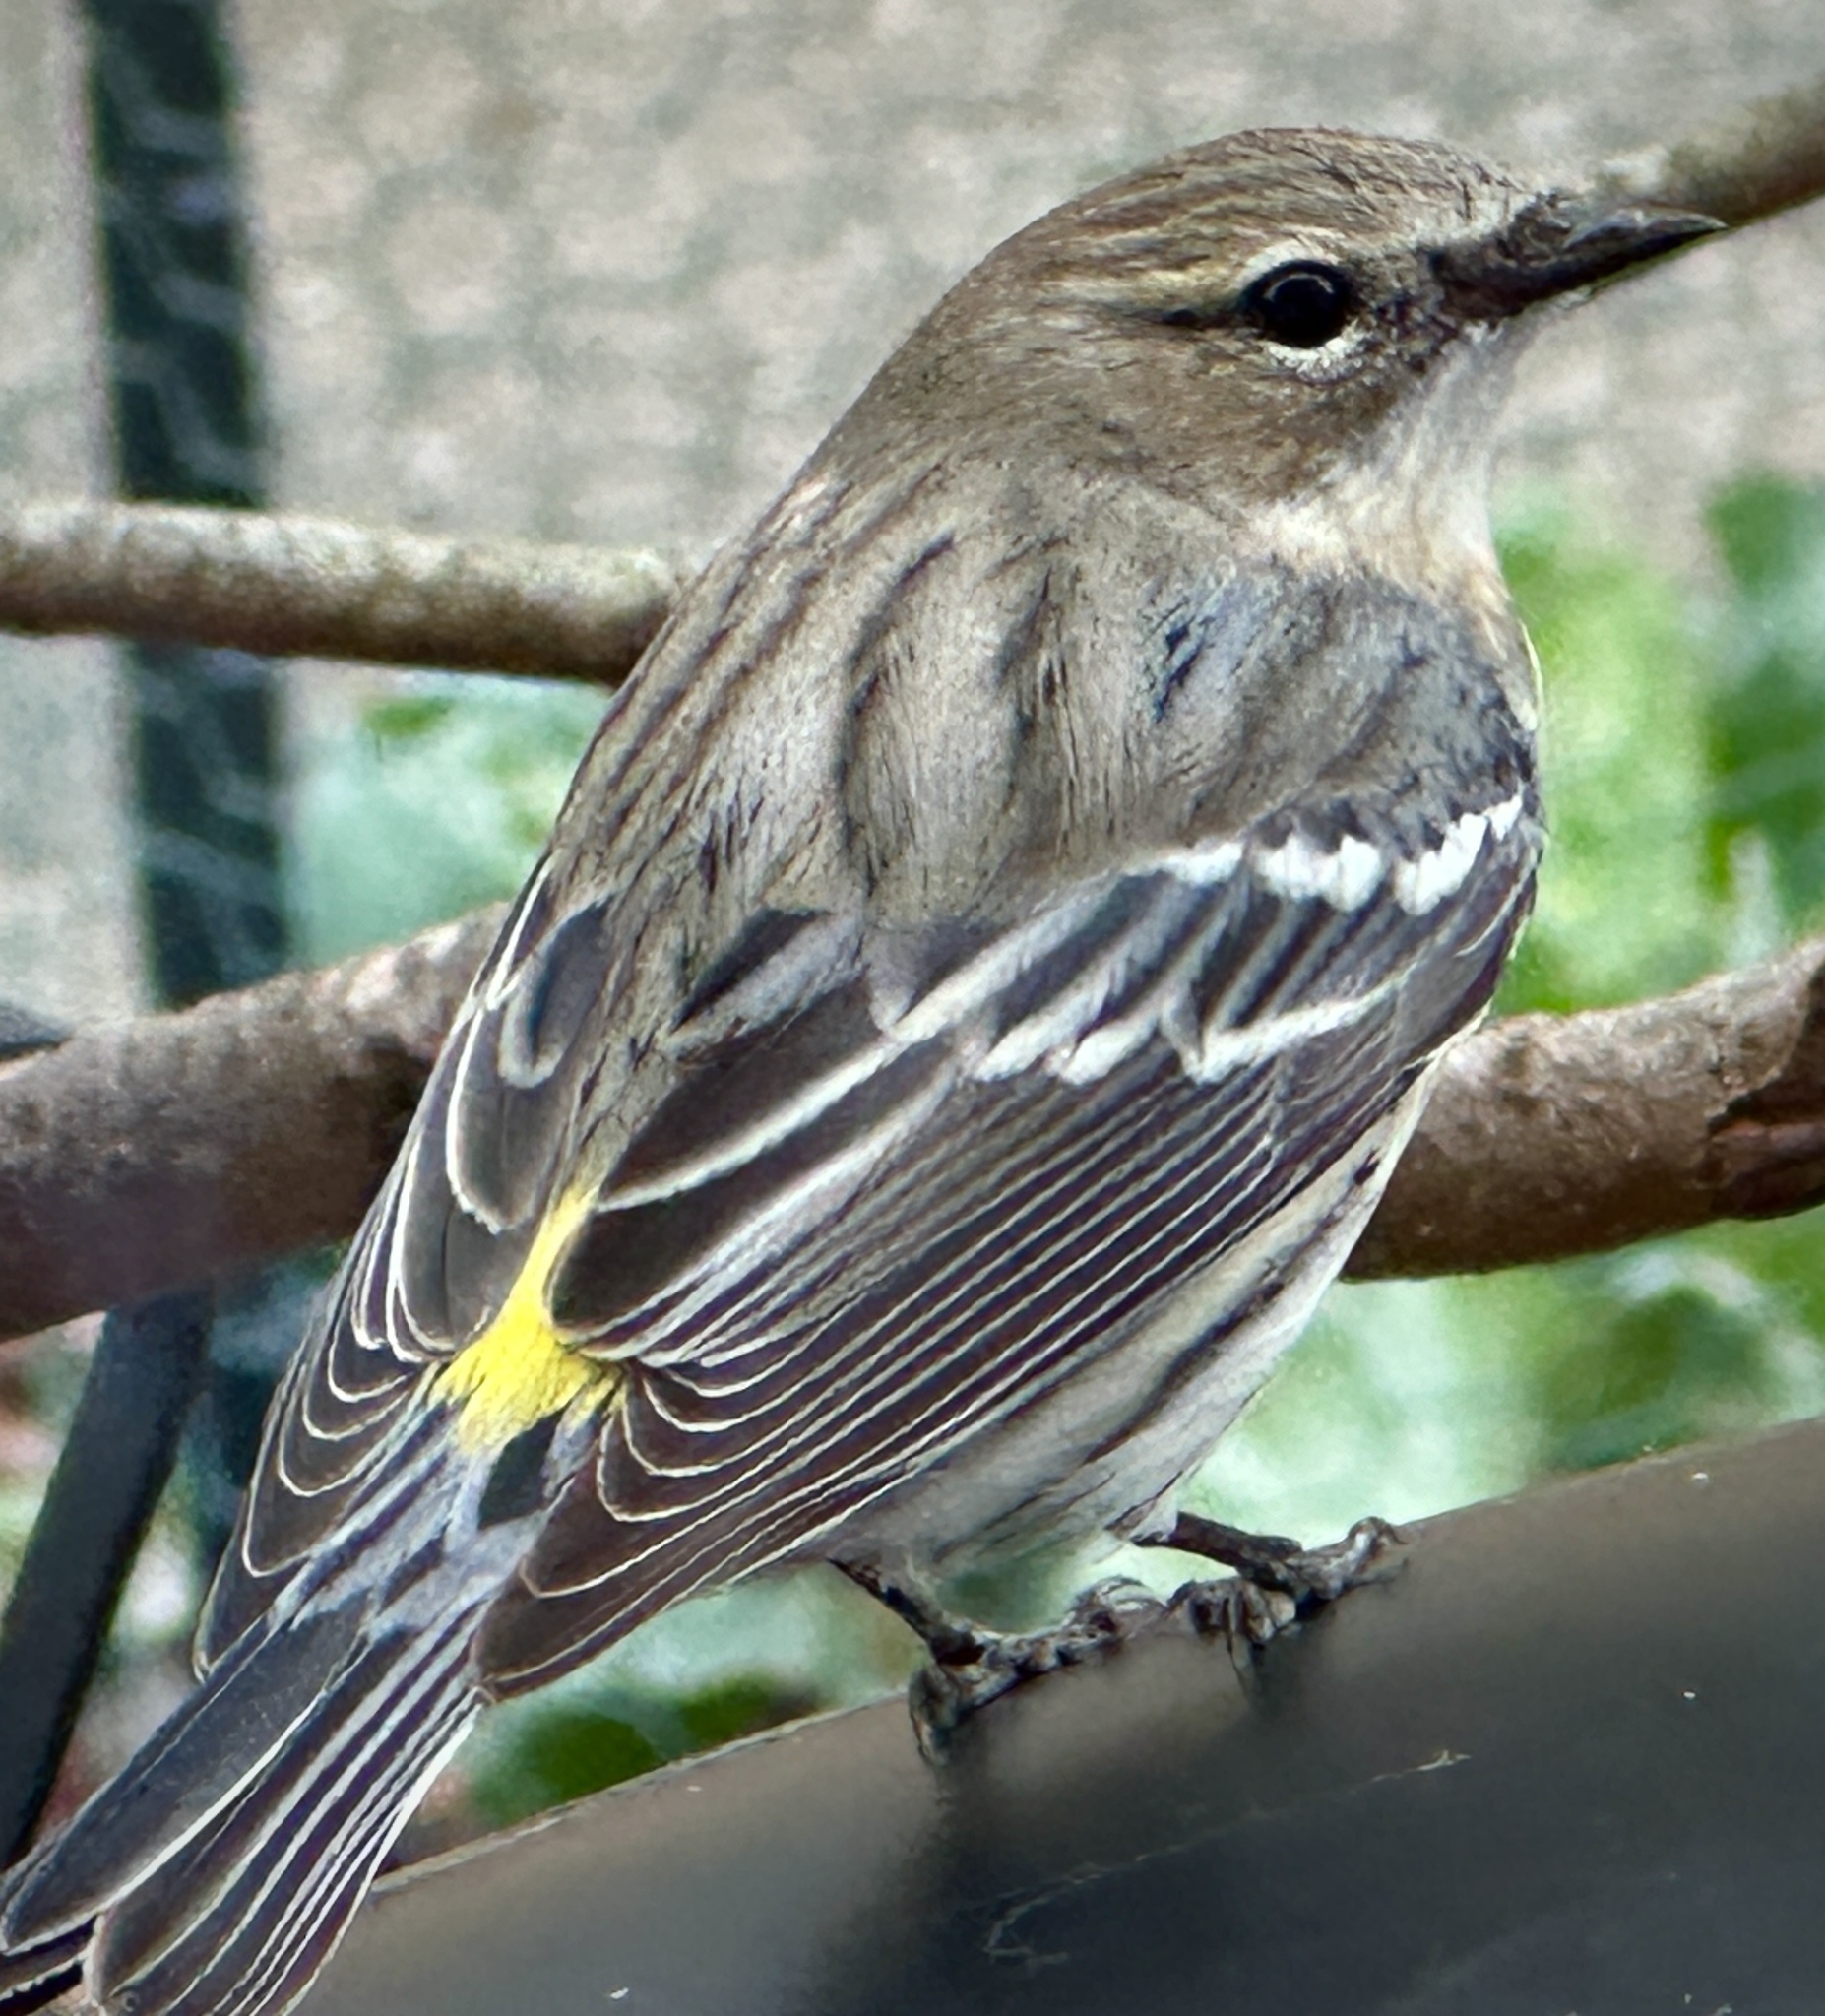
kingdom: Animalia
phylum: Chordata
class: Aves
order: Passeriformes
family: Parulidae
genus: Setophaga
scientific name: Setophaga coronata
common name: Myrtle warbler
